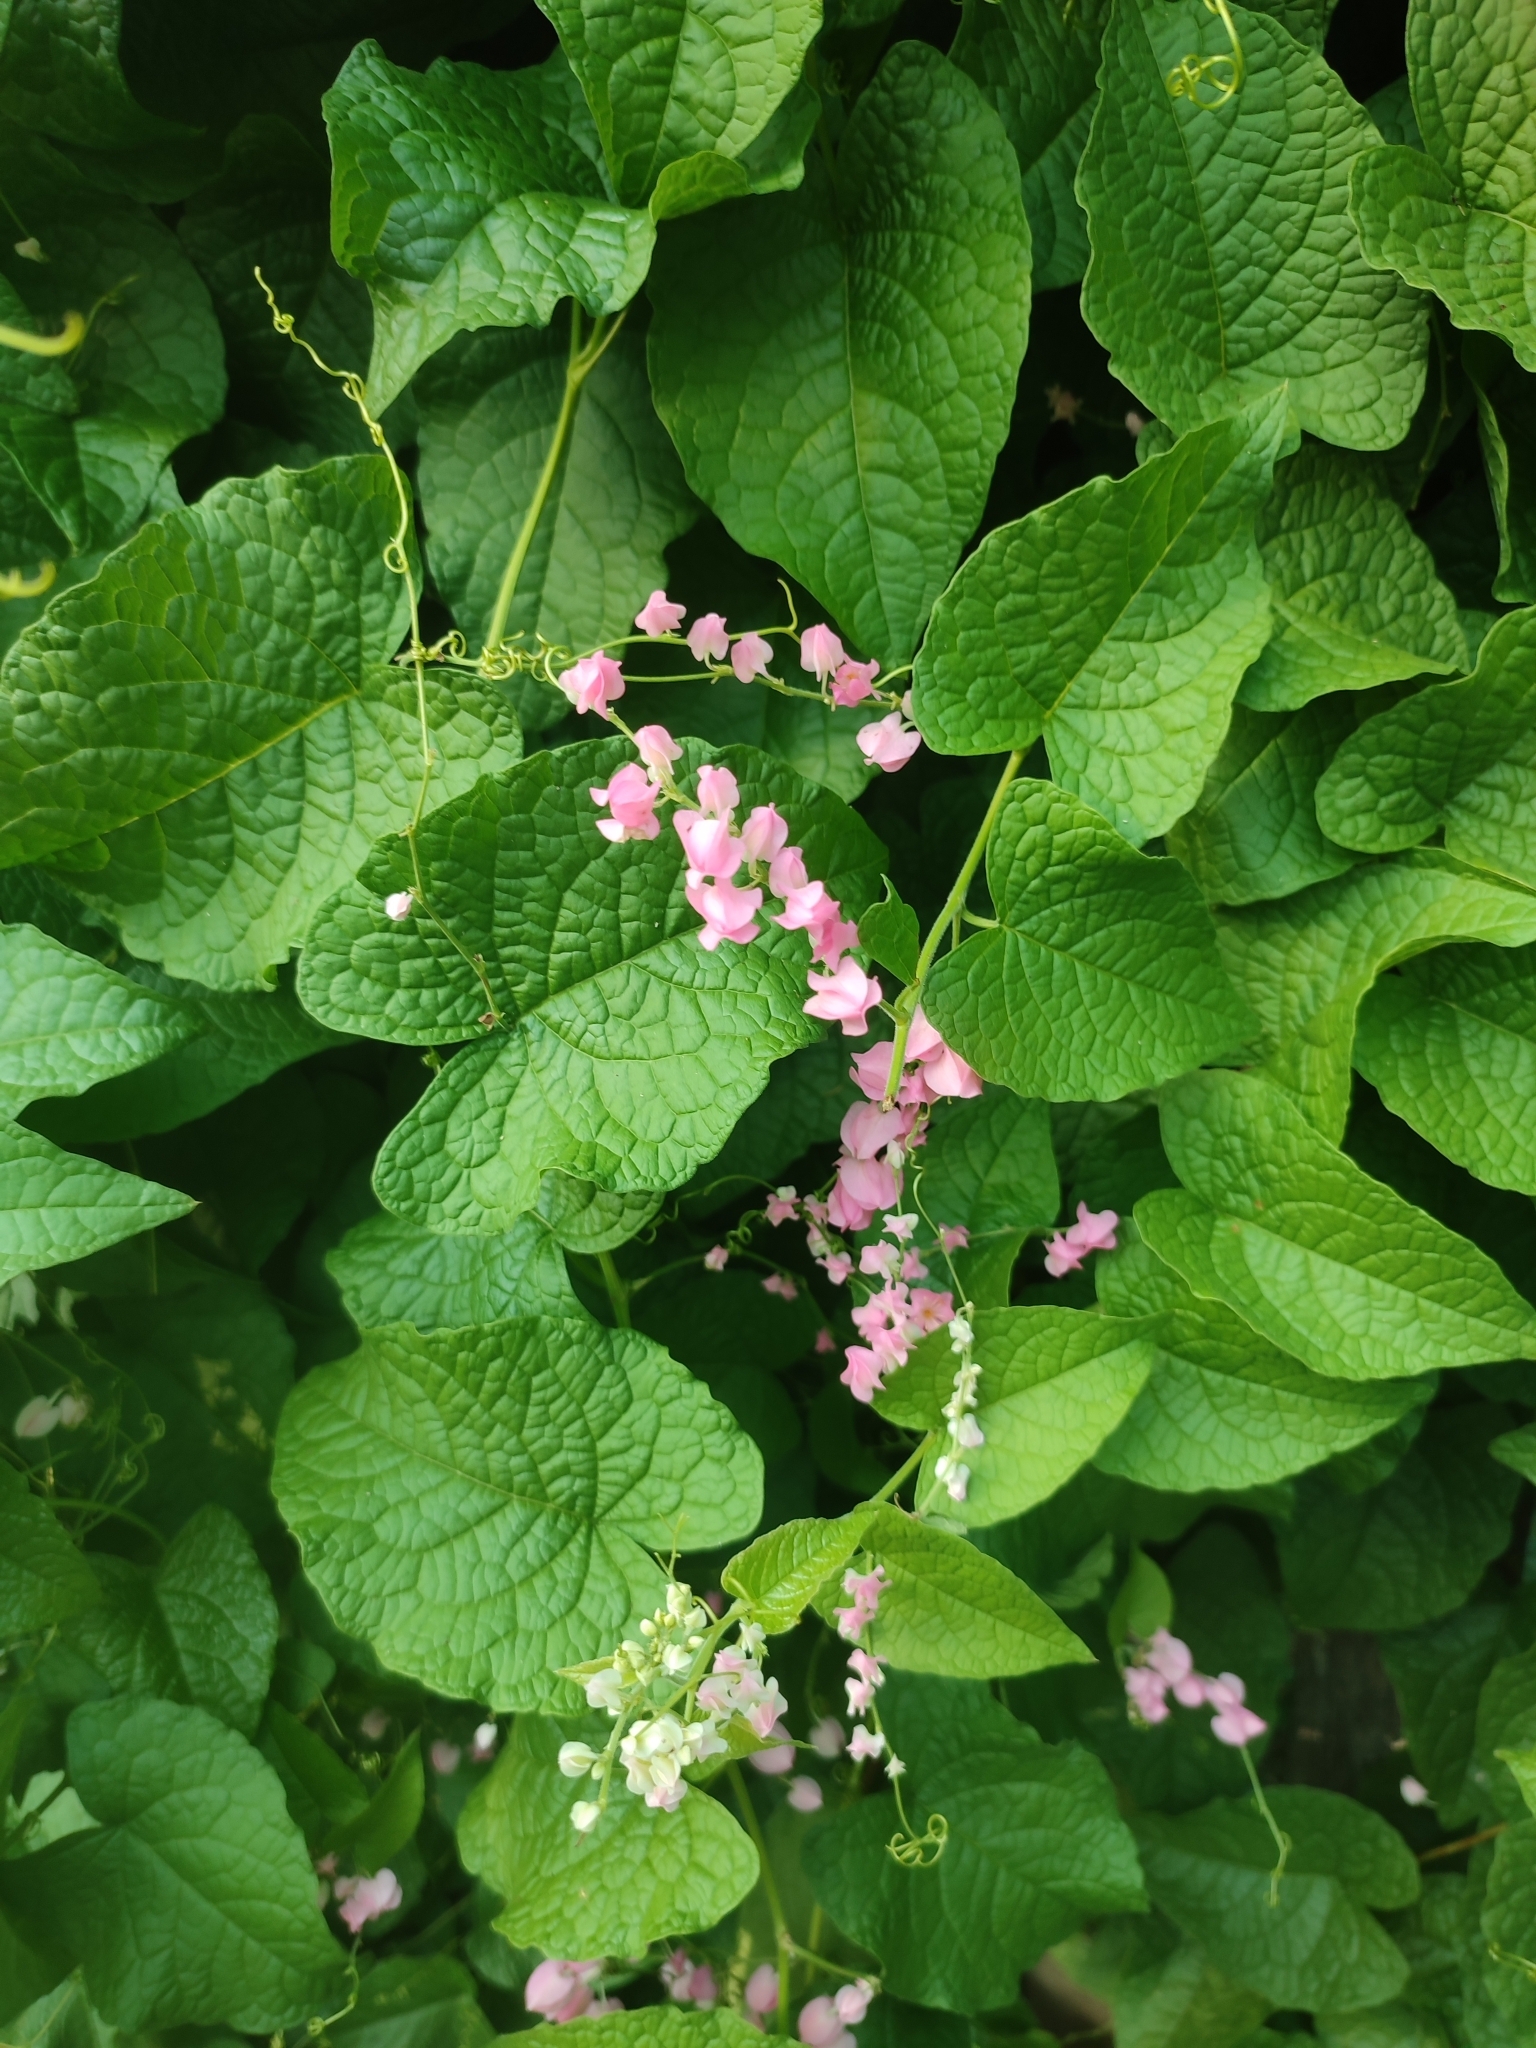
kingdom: Plantae
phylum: Tracheophyta
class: Magnoliopsida
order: Caryophyllales
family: Polygonaceae
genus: Antigonon
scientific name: Antigonon leptopus
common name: Coral vine
